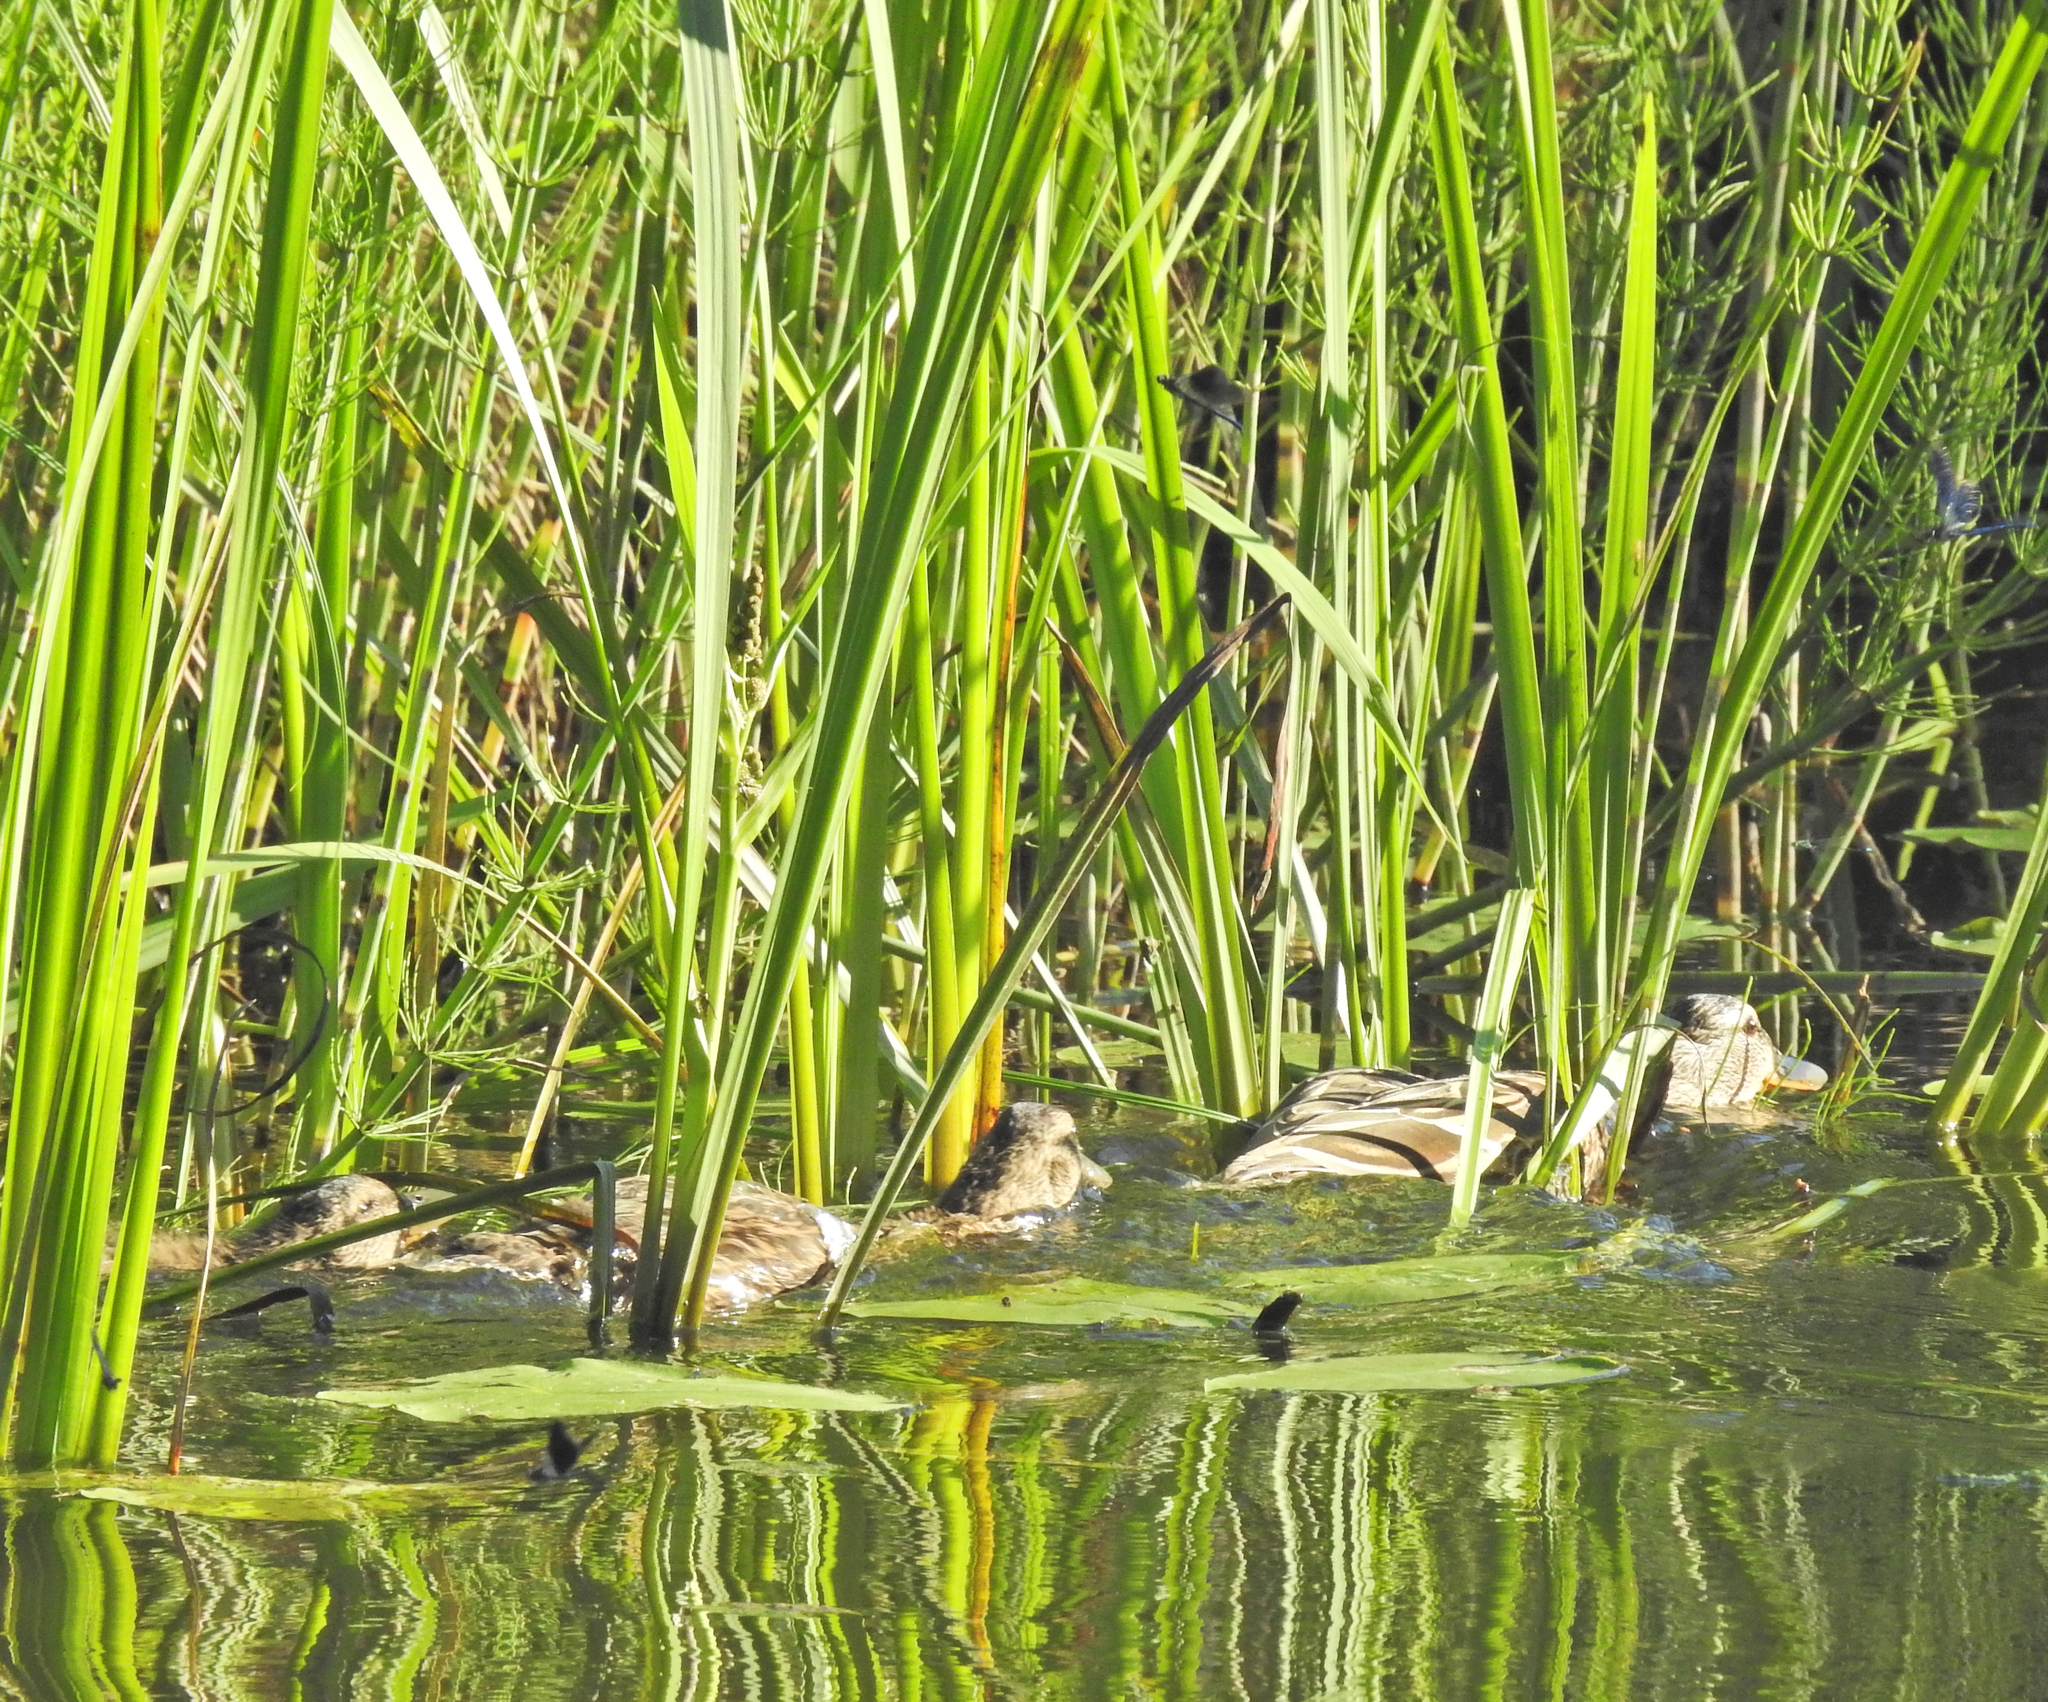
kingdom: Animalia
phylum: Chordata
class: Aves
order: Anseriformes
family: Anatidae
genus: Anas
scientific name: Anas platyrhynchos
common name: Mallard
